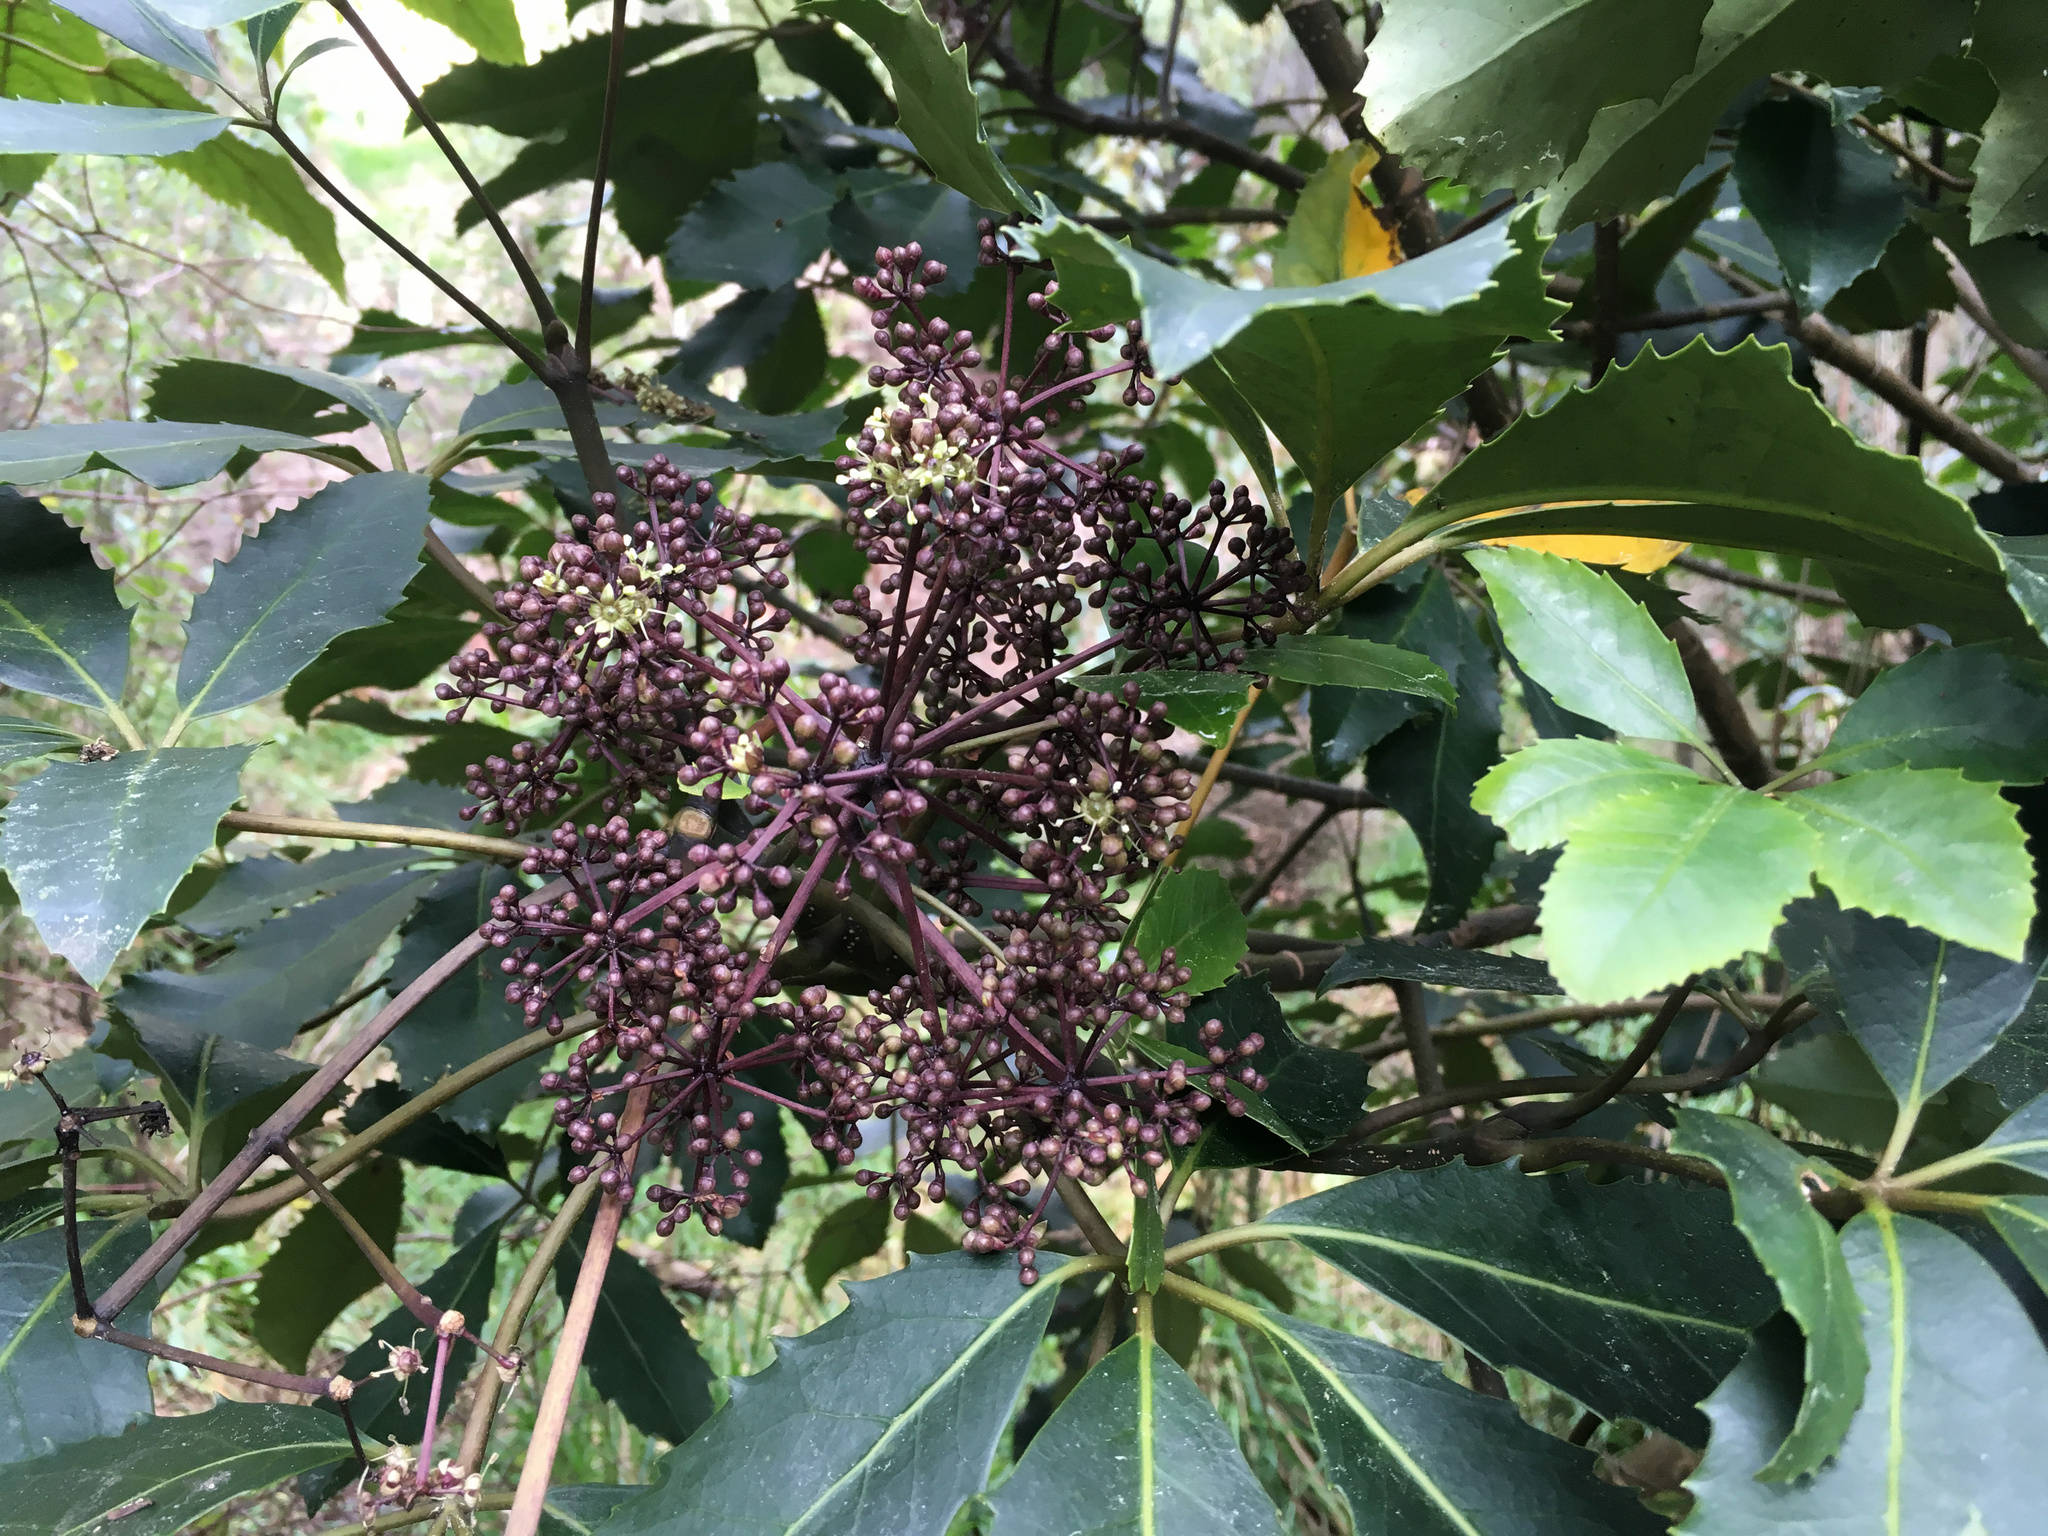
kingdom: Plantae
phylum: Tracheophyta
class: Magnoliopsida
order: Apiales
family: Araliaceae
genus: Neopanax
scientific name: Neopanax arboreus
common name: Five-fingers
